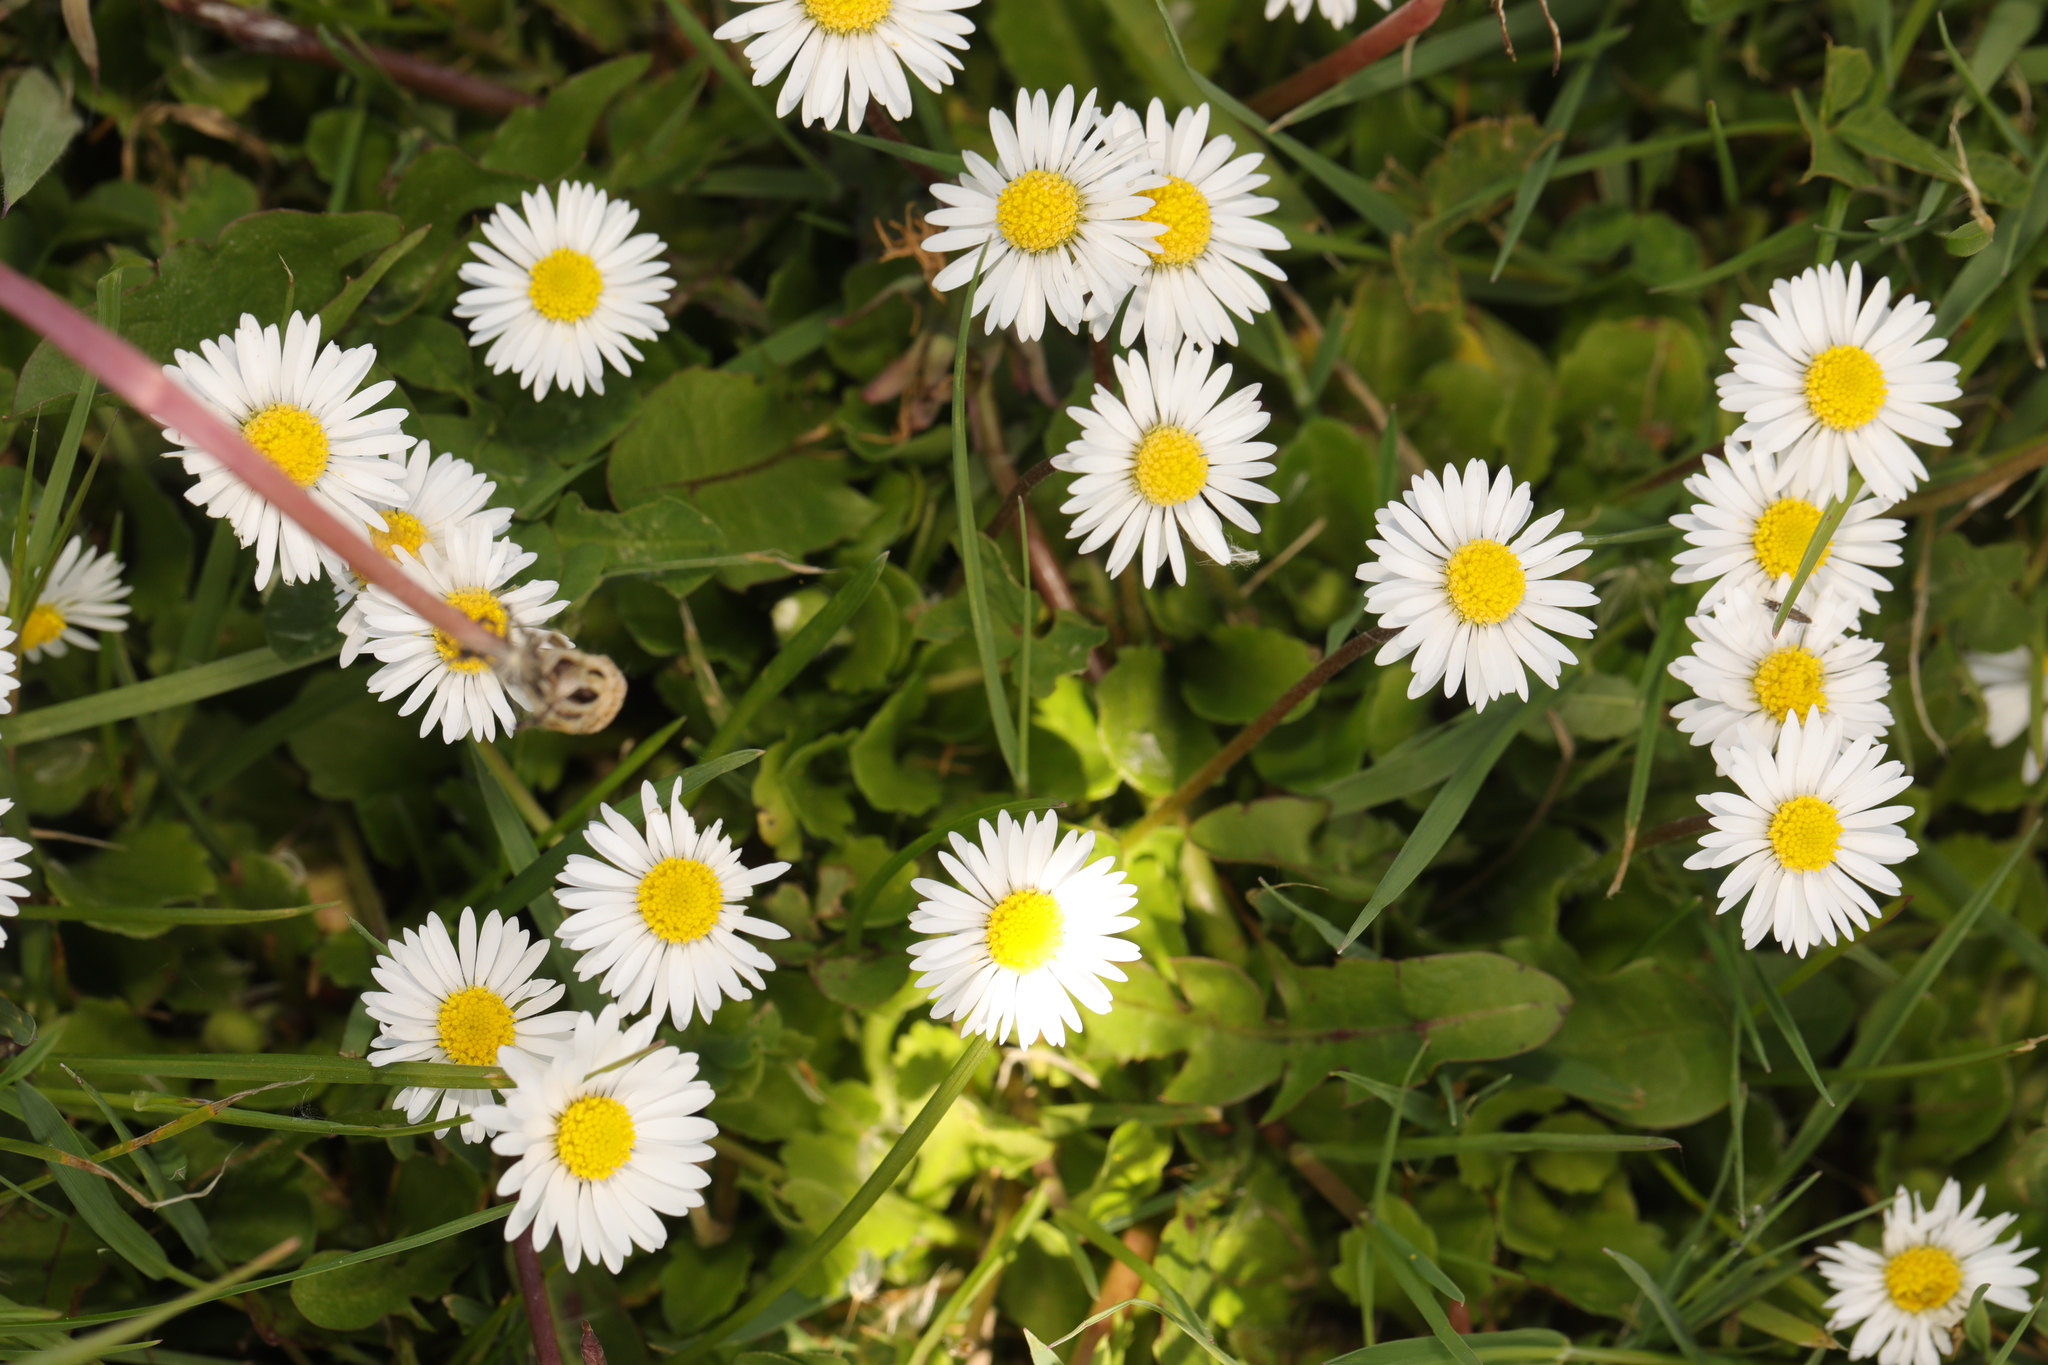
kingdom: Plantae
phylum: Tracheophyta
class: Magnoliopsida
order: Asterales
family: Asteraceae
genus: Bellis
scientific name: Bellis perennis
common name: Lawndaisy
